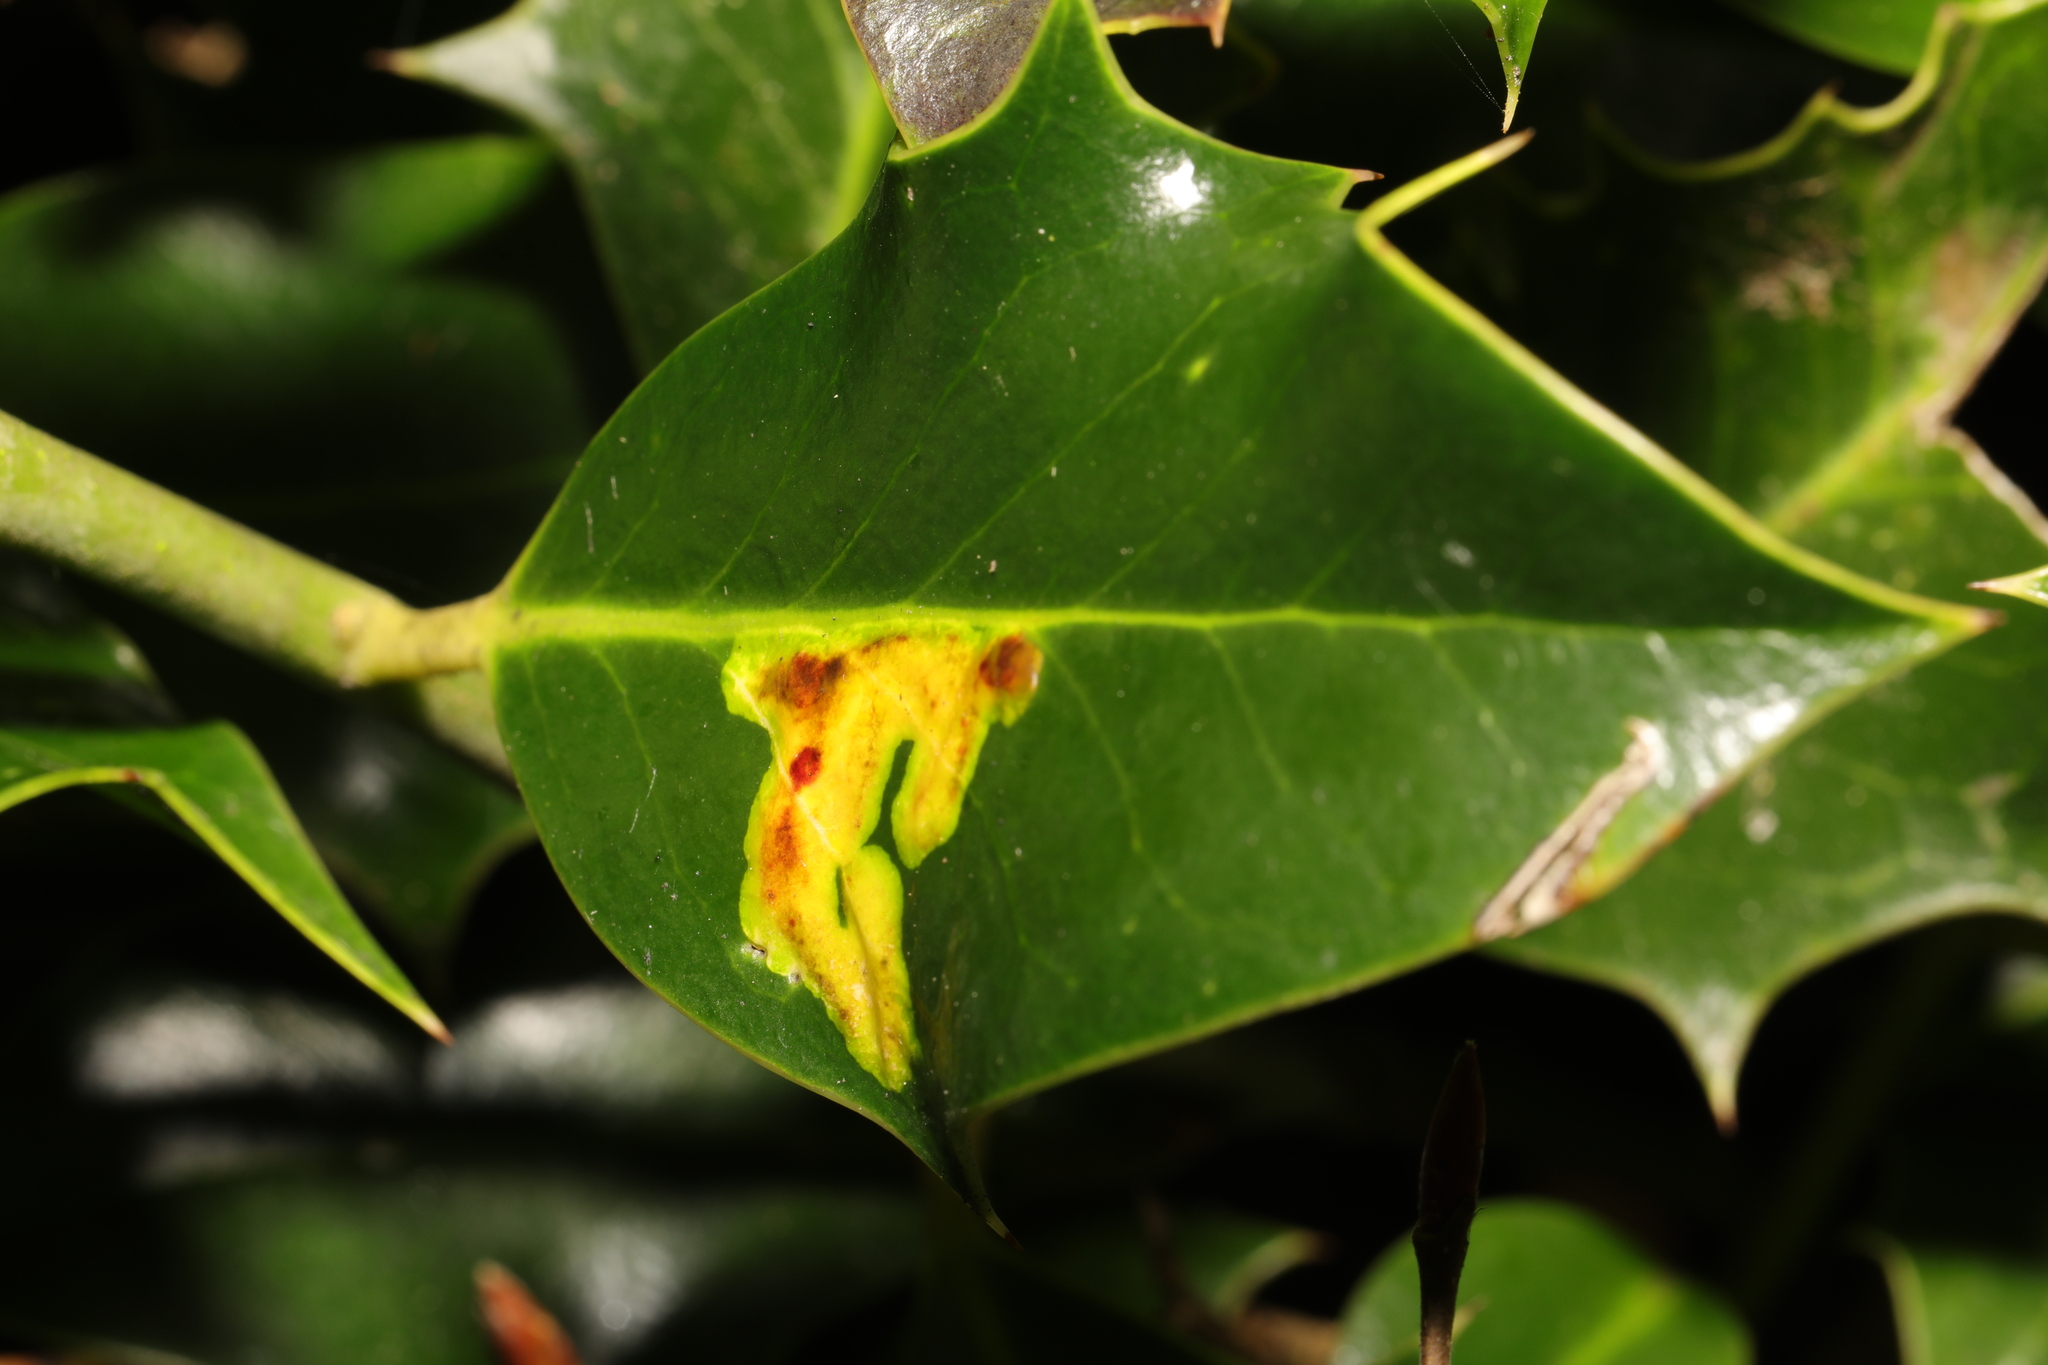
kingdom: Animalia
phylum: Arthropoda
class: Insecta
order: Diptera
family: Agromyzidae
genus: Phytomyza
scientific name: Phytomyza ilicis
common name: Holly leafminer
